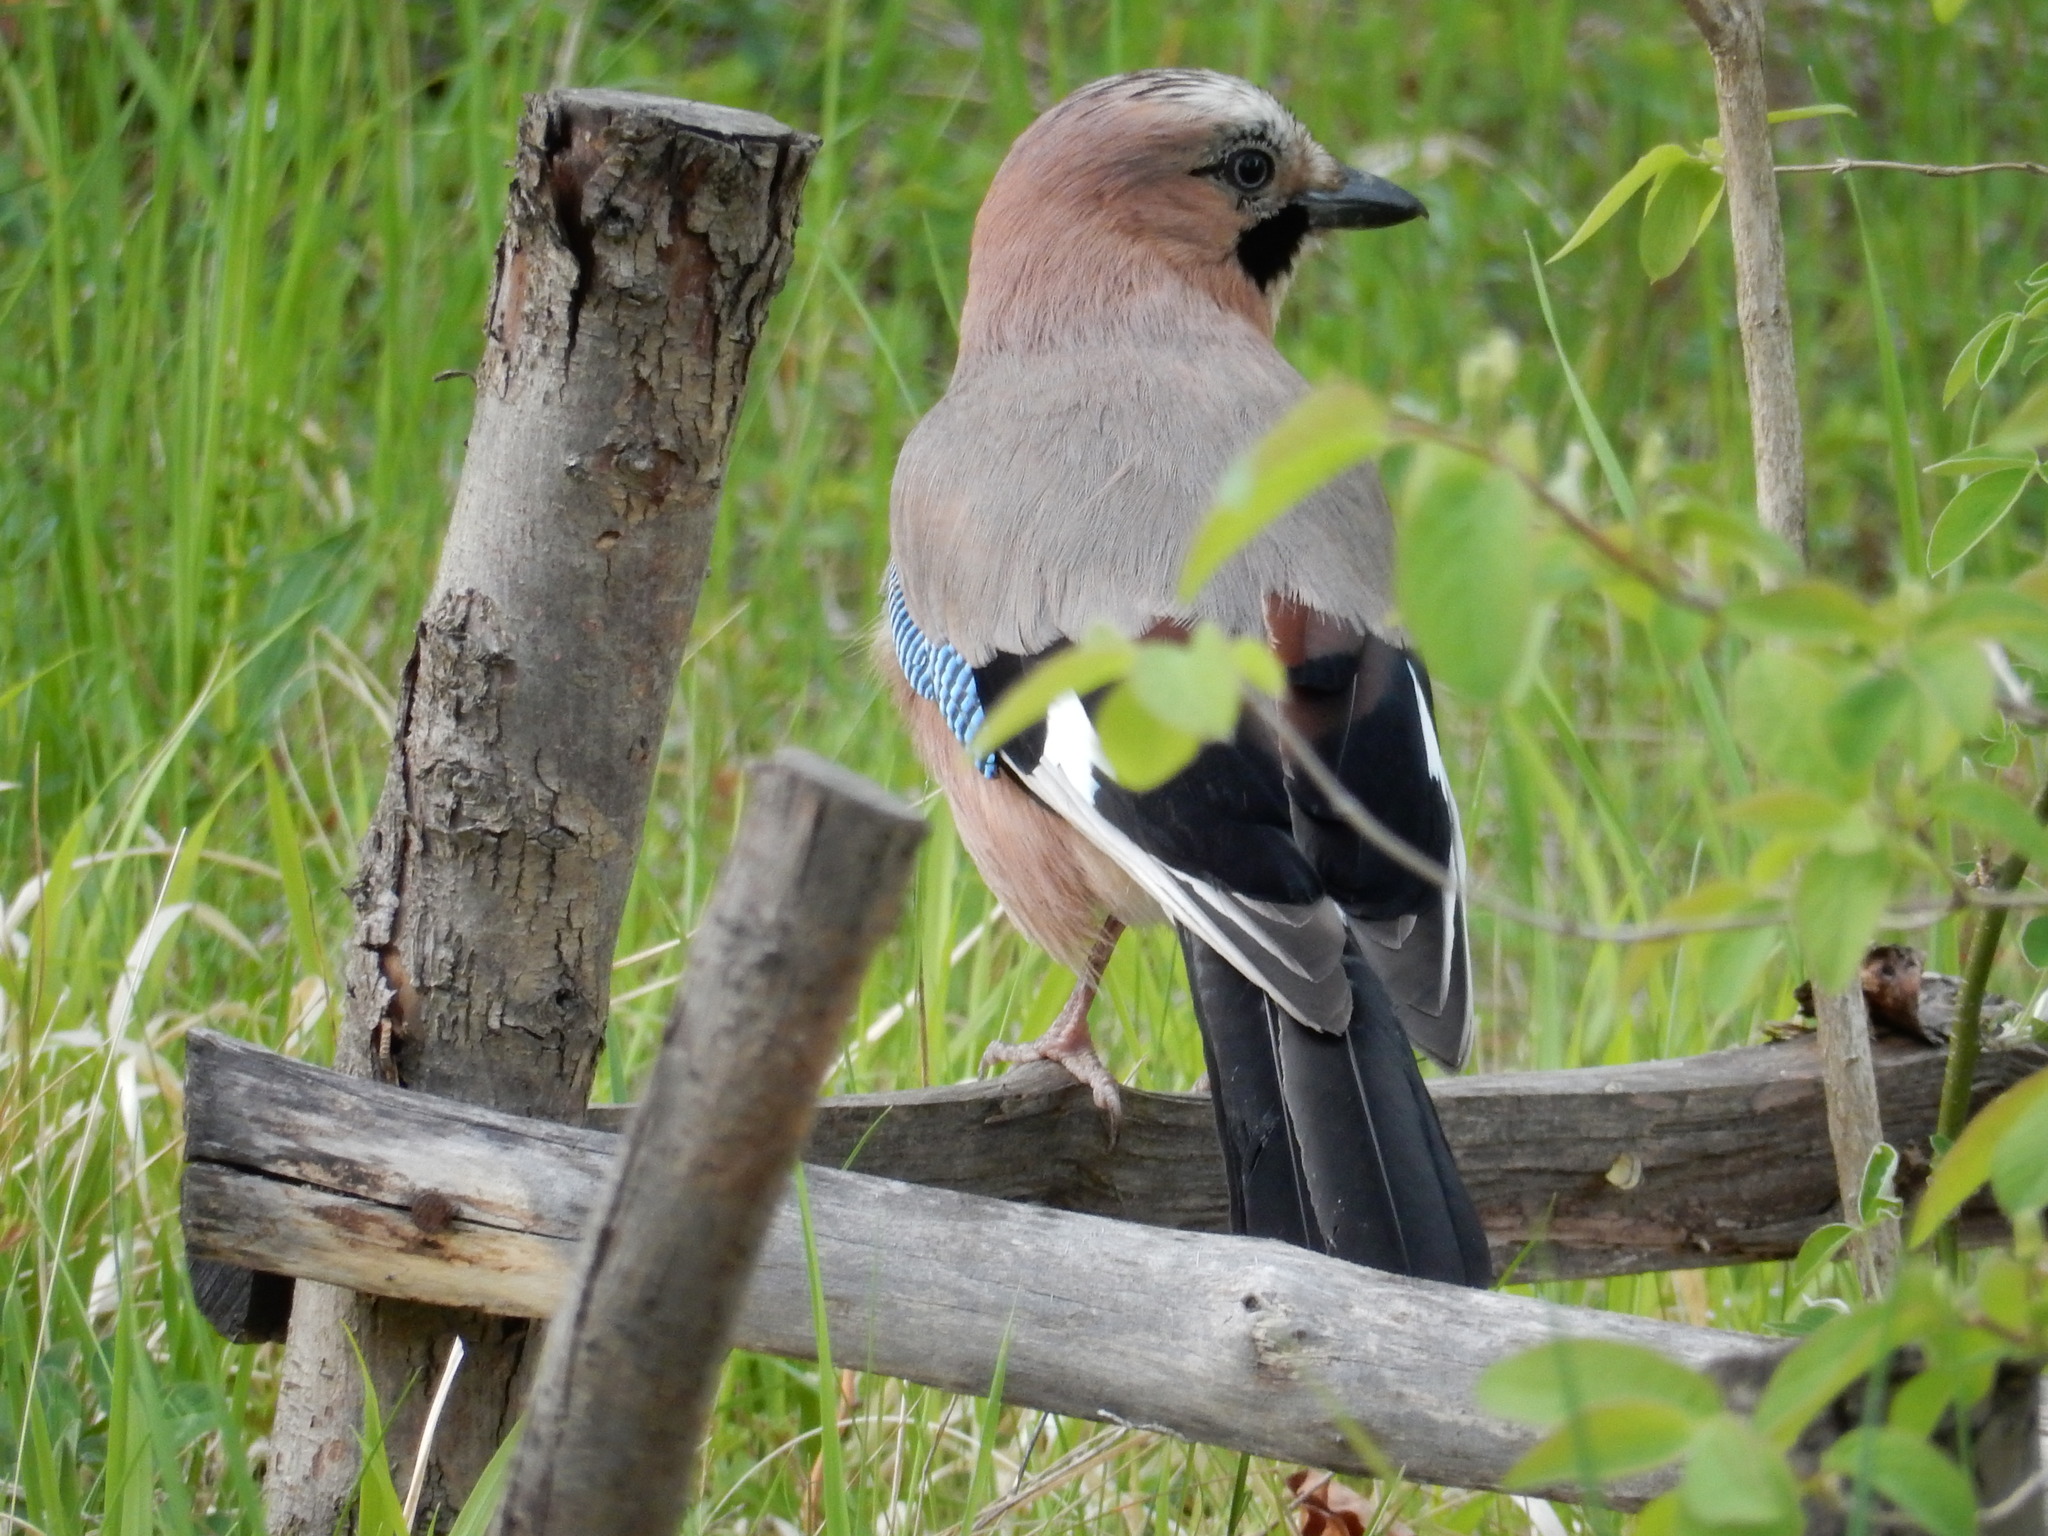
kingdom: Animalia
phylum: Chordata
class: Aves
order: Passeriformes
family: Corvidae
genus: Garrulus
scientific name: Garrulus glandarius
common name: Eurasian jay
